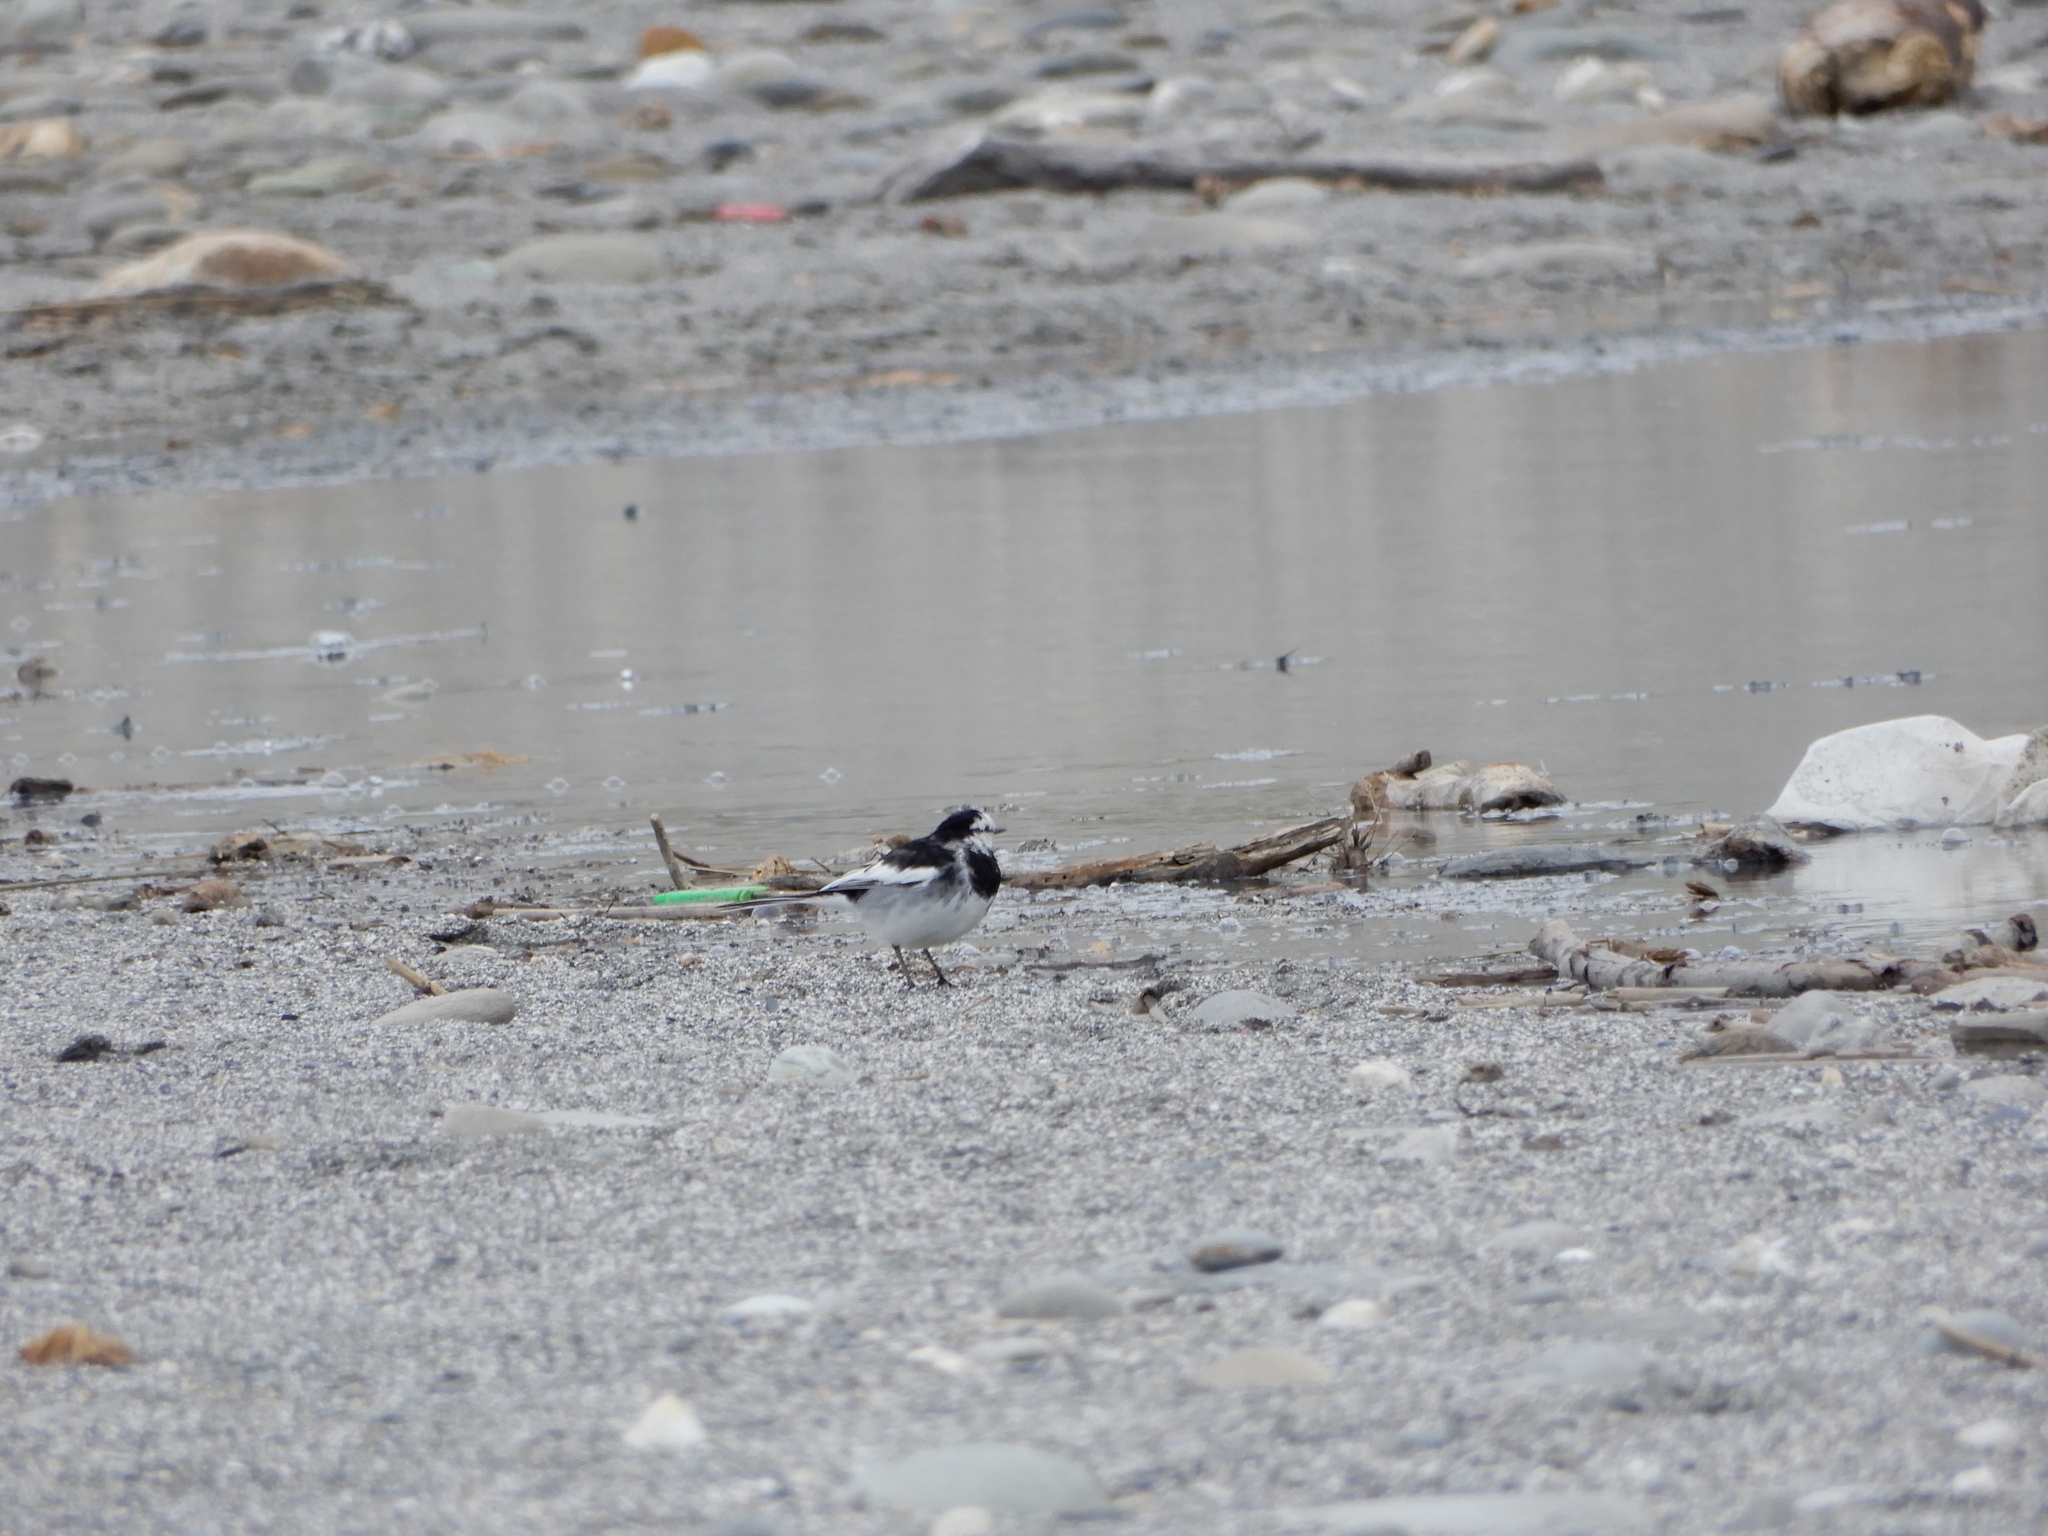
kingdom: Animalia
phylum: Chordata
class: Aves
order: Passeriformes
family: Motacillidae
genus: Motacilla
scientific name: Motacilla alba
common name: White wagtail
